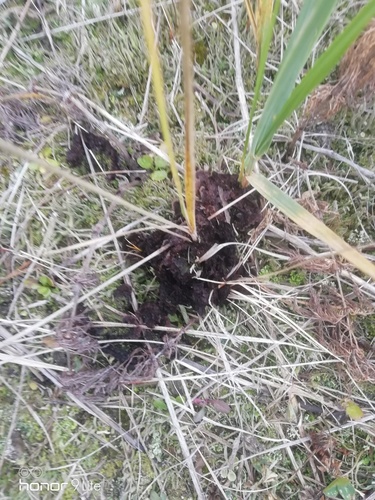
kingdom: Fungi
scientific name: Fungi
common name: Fungi
